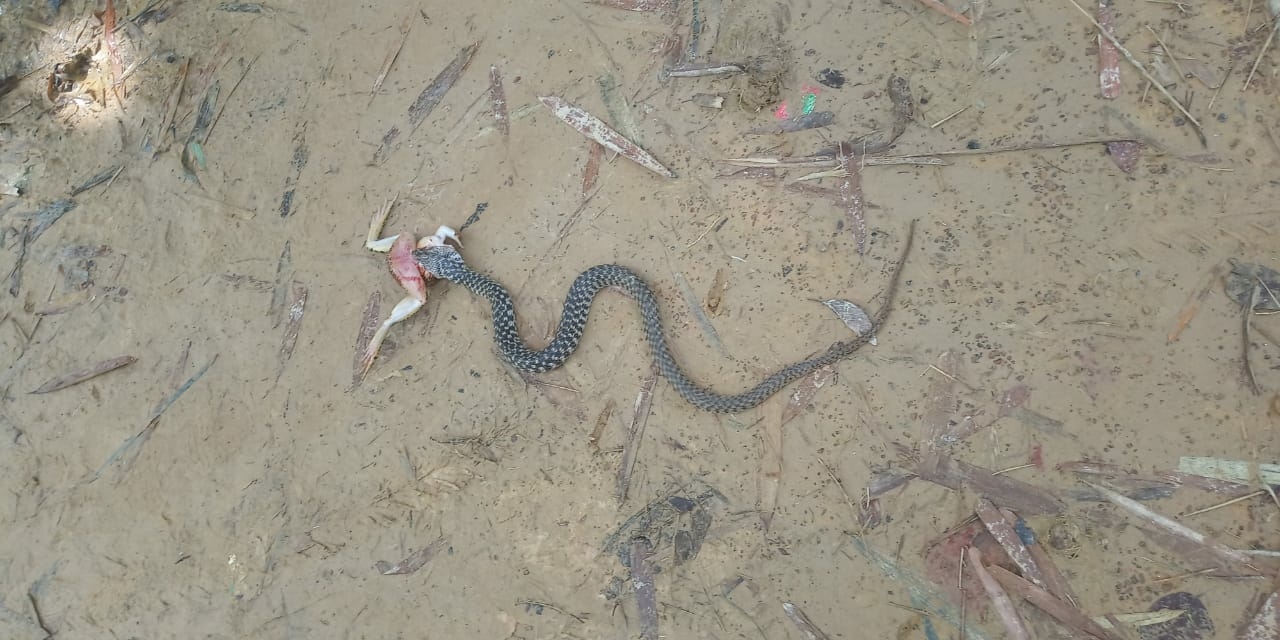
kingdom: Animalia
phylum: Chordata
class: Squamata
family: Colubridae
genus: Fowlea
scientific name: Fowlea piscator
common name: Asiatic water snake
